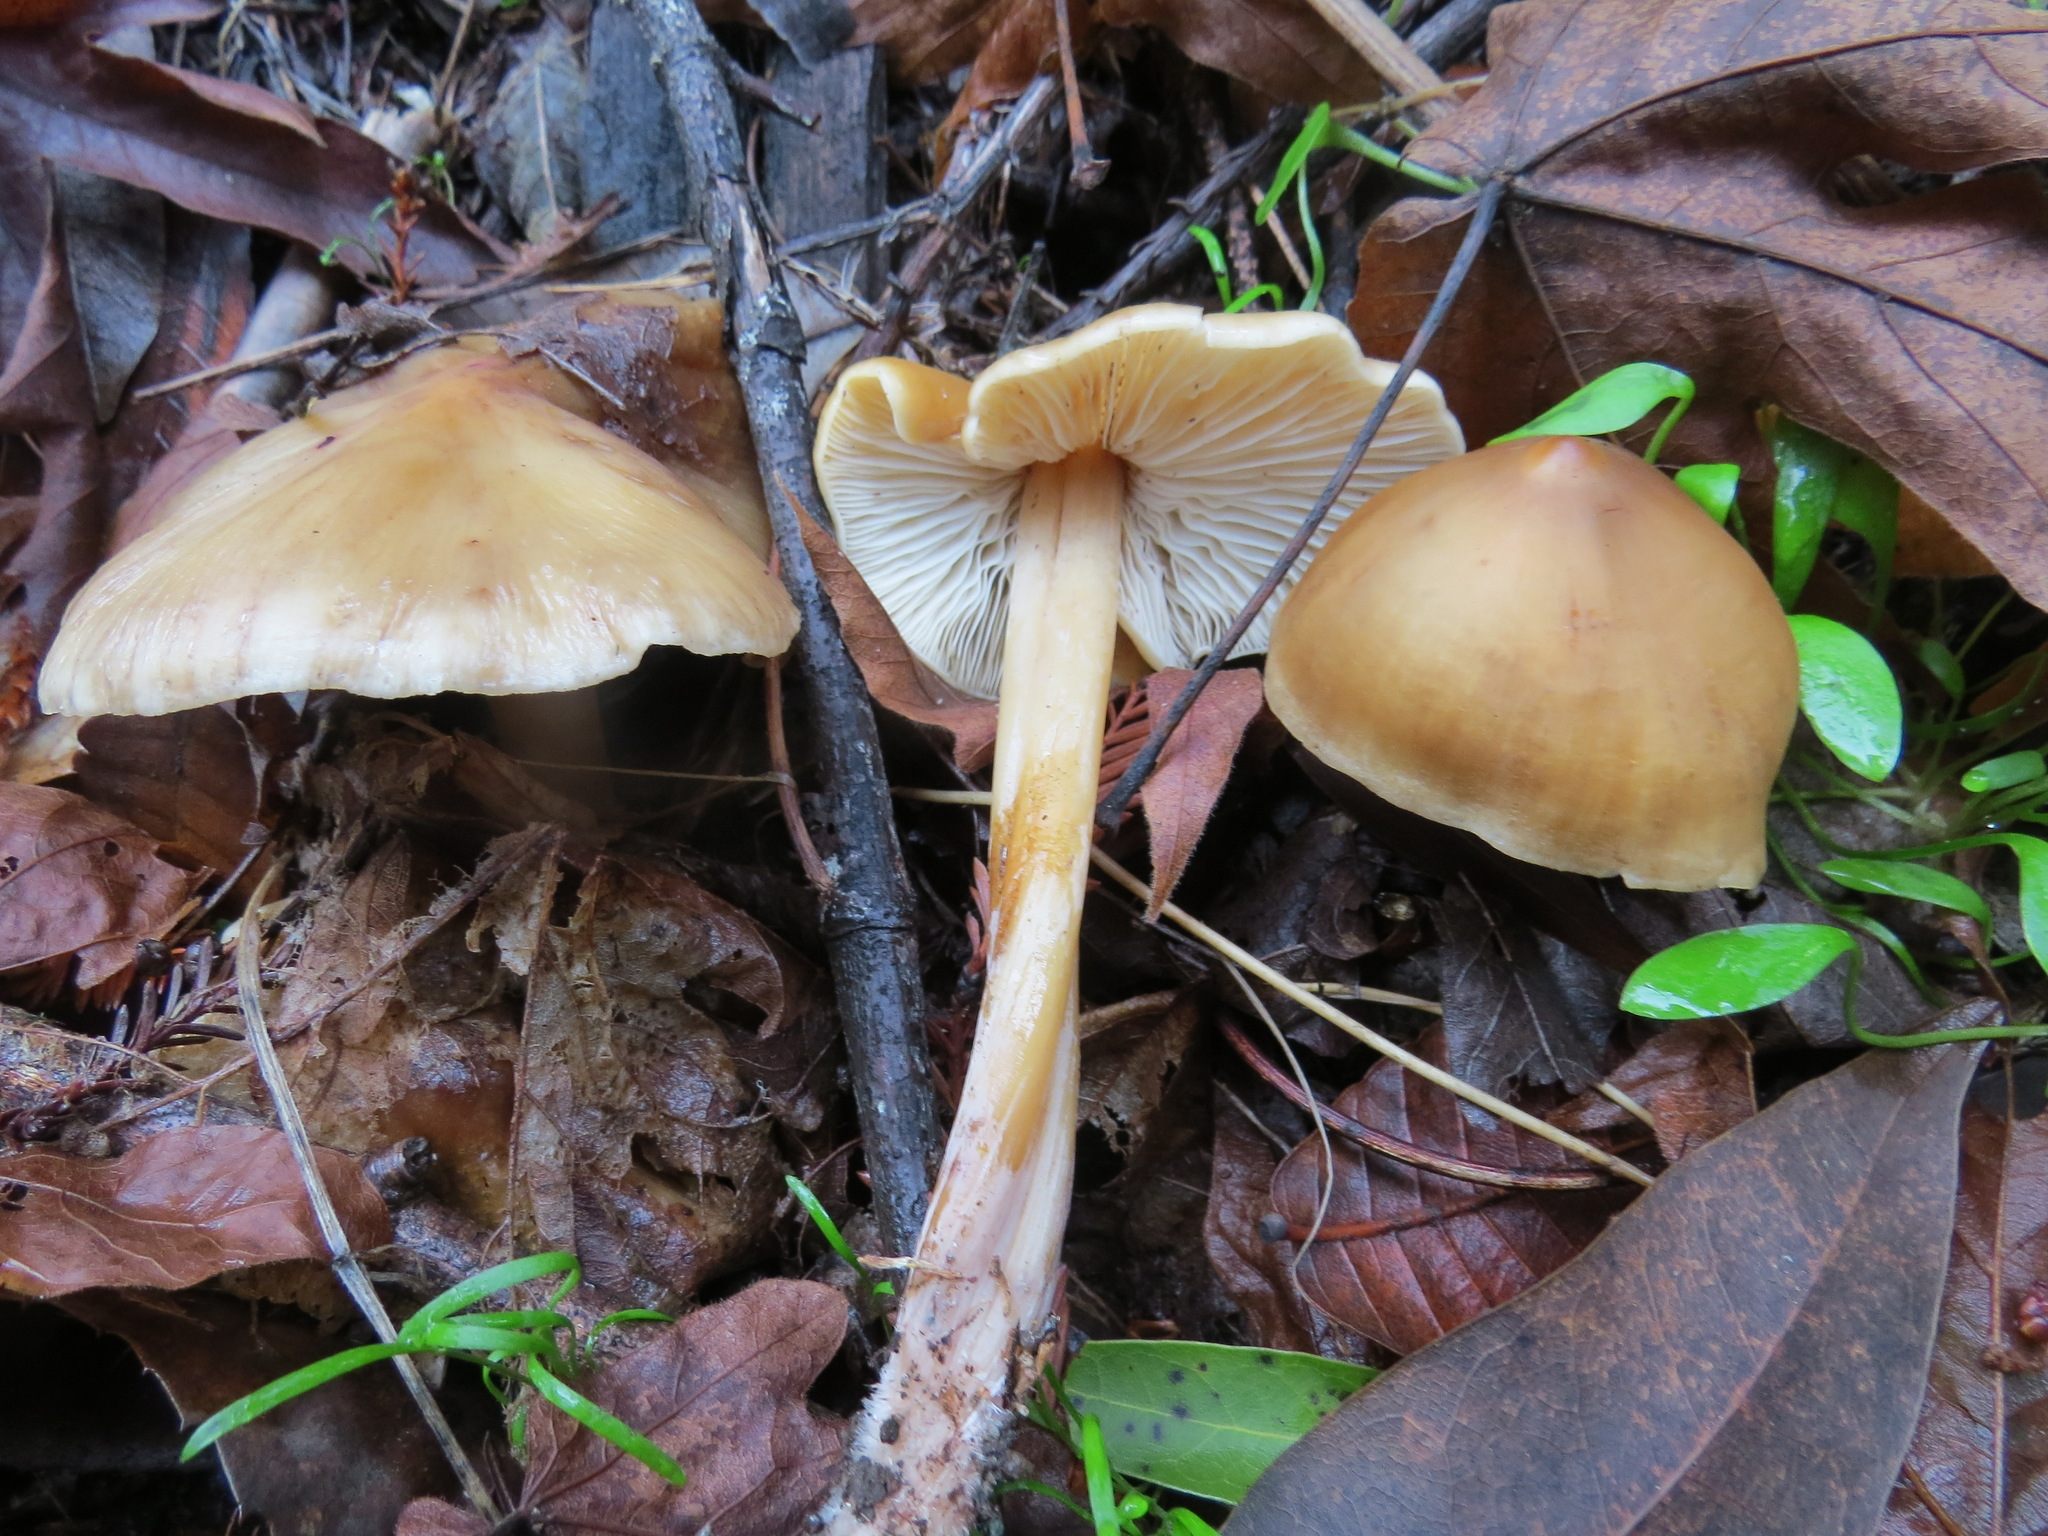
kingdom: Fungi
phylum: Basidiomycota
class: Agaricomycetes
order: Agaricales
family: Tricholomataceae
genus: Caulorhiza
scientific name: Caulorhiza umbonata
